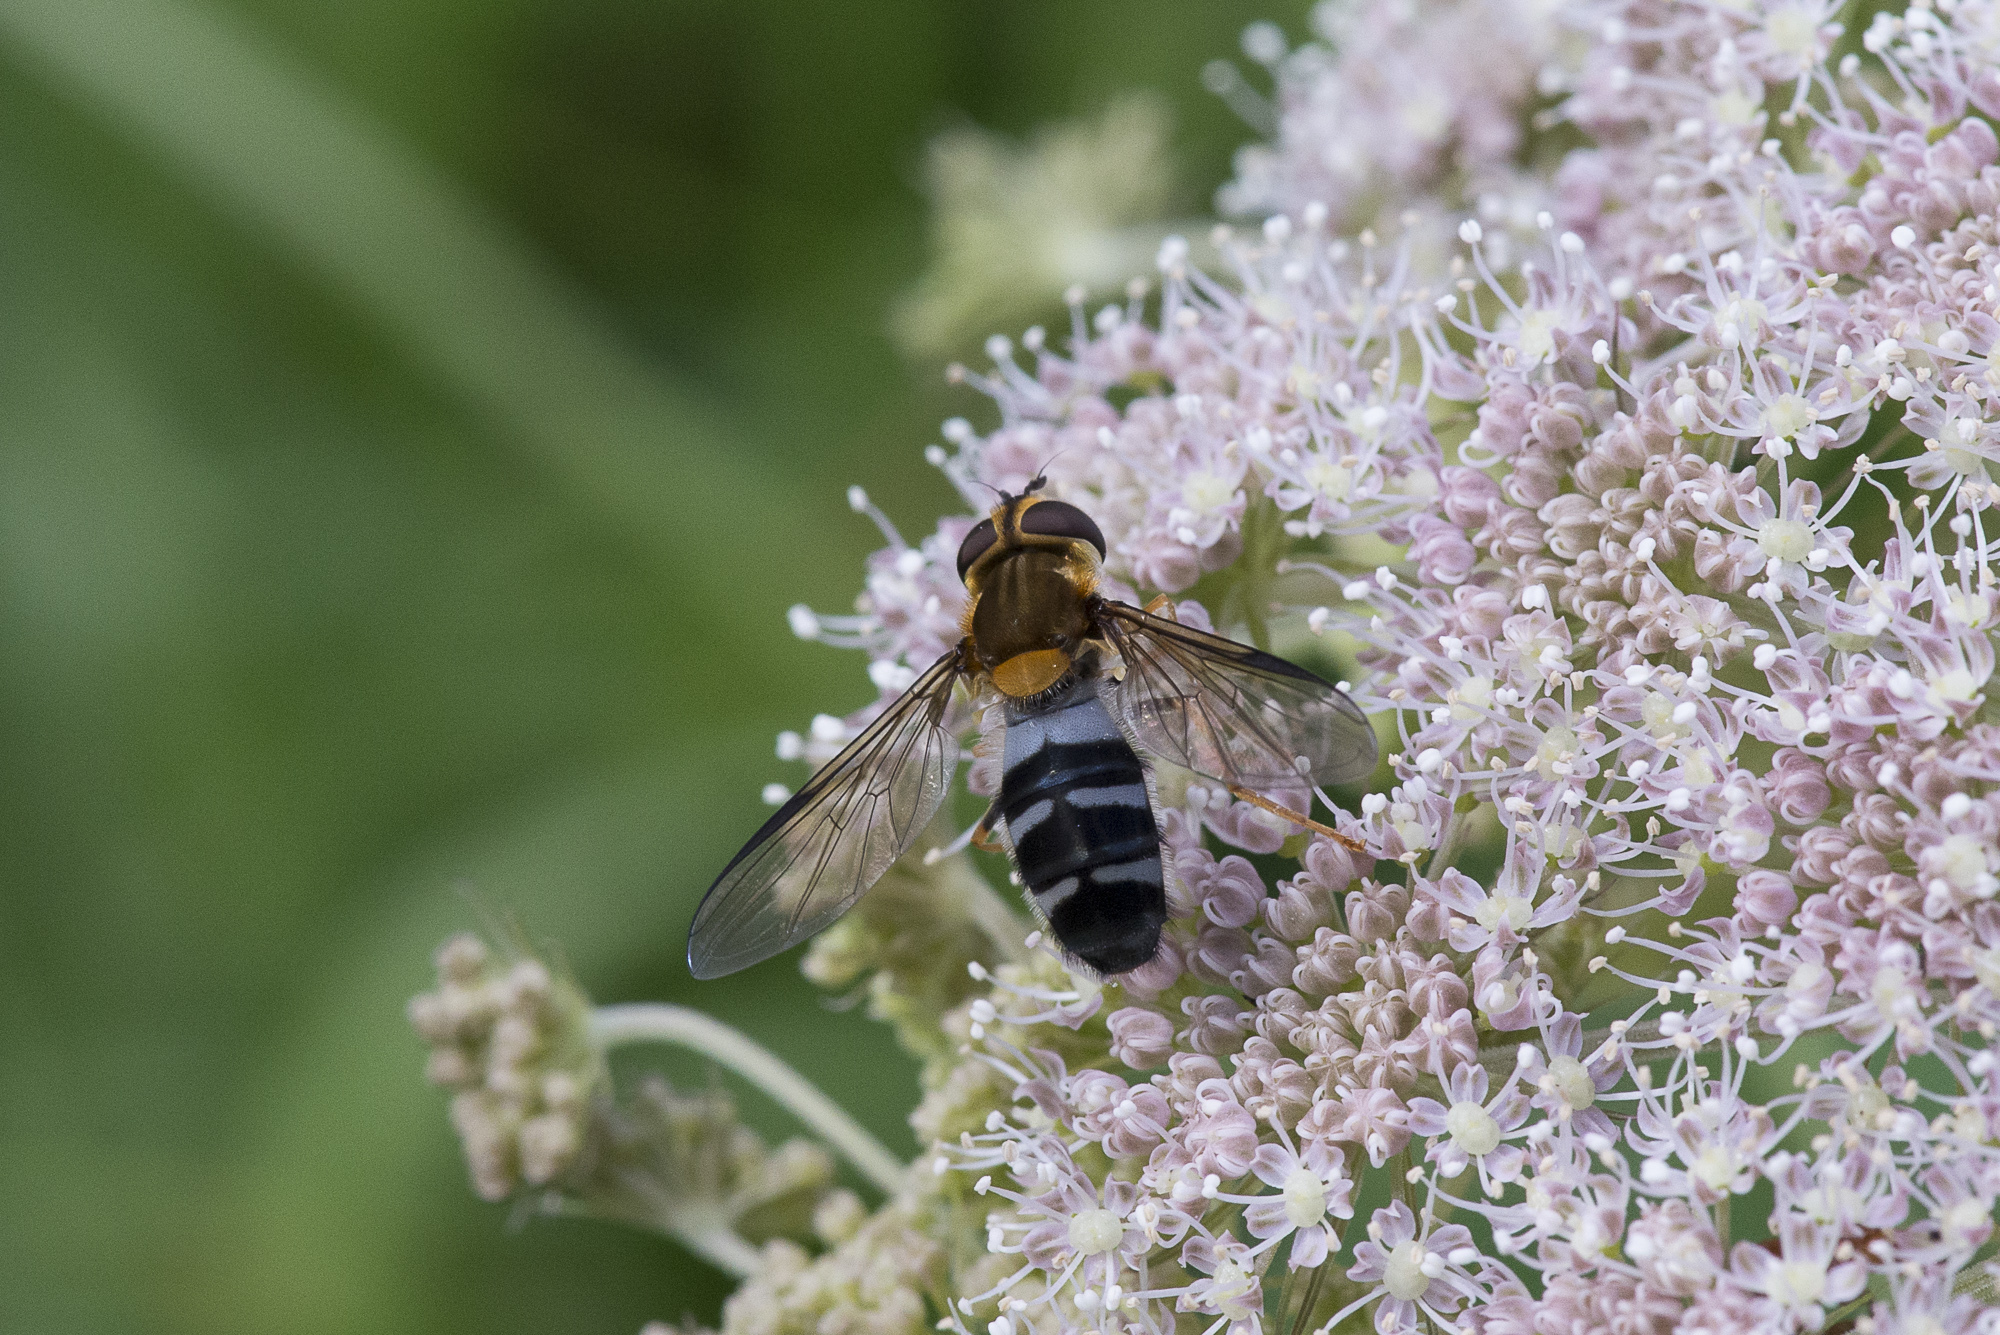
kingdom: Animalia
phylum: Arthropoda
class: Insecta
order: Diptera
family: Syrphidae
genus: Leucozona
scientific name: Leucozona glaucia
